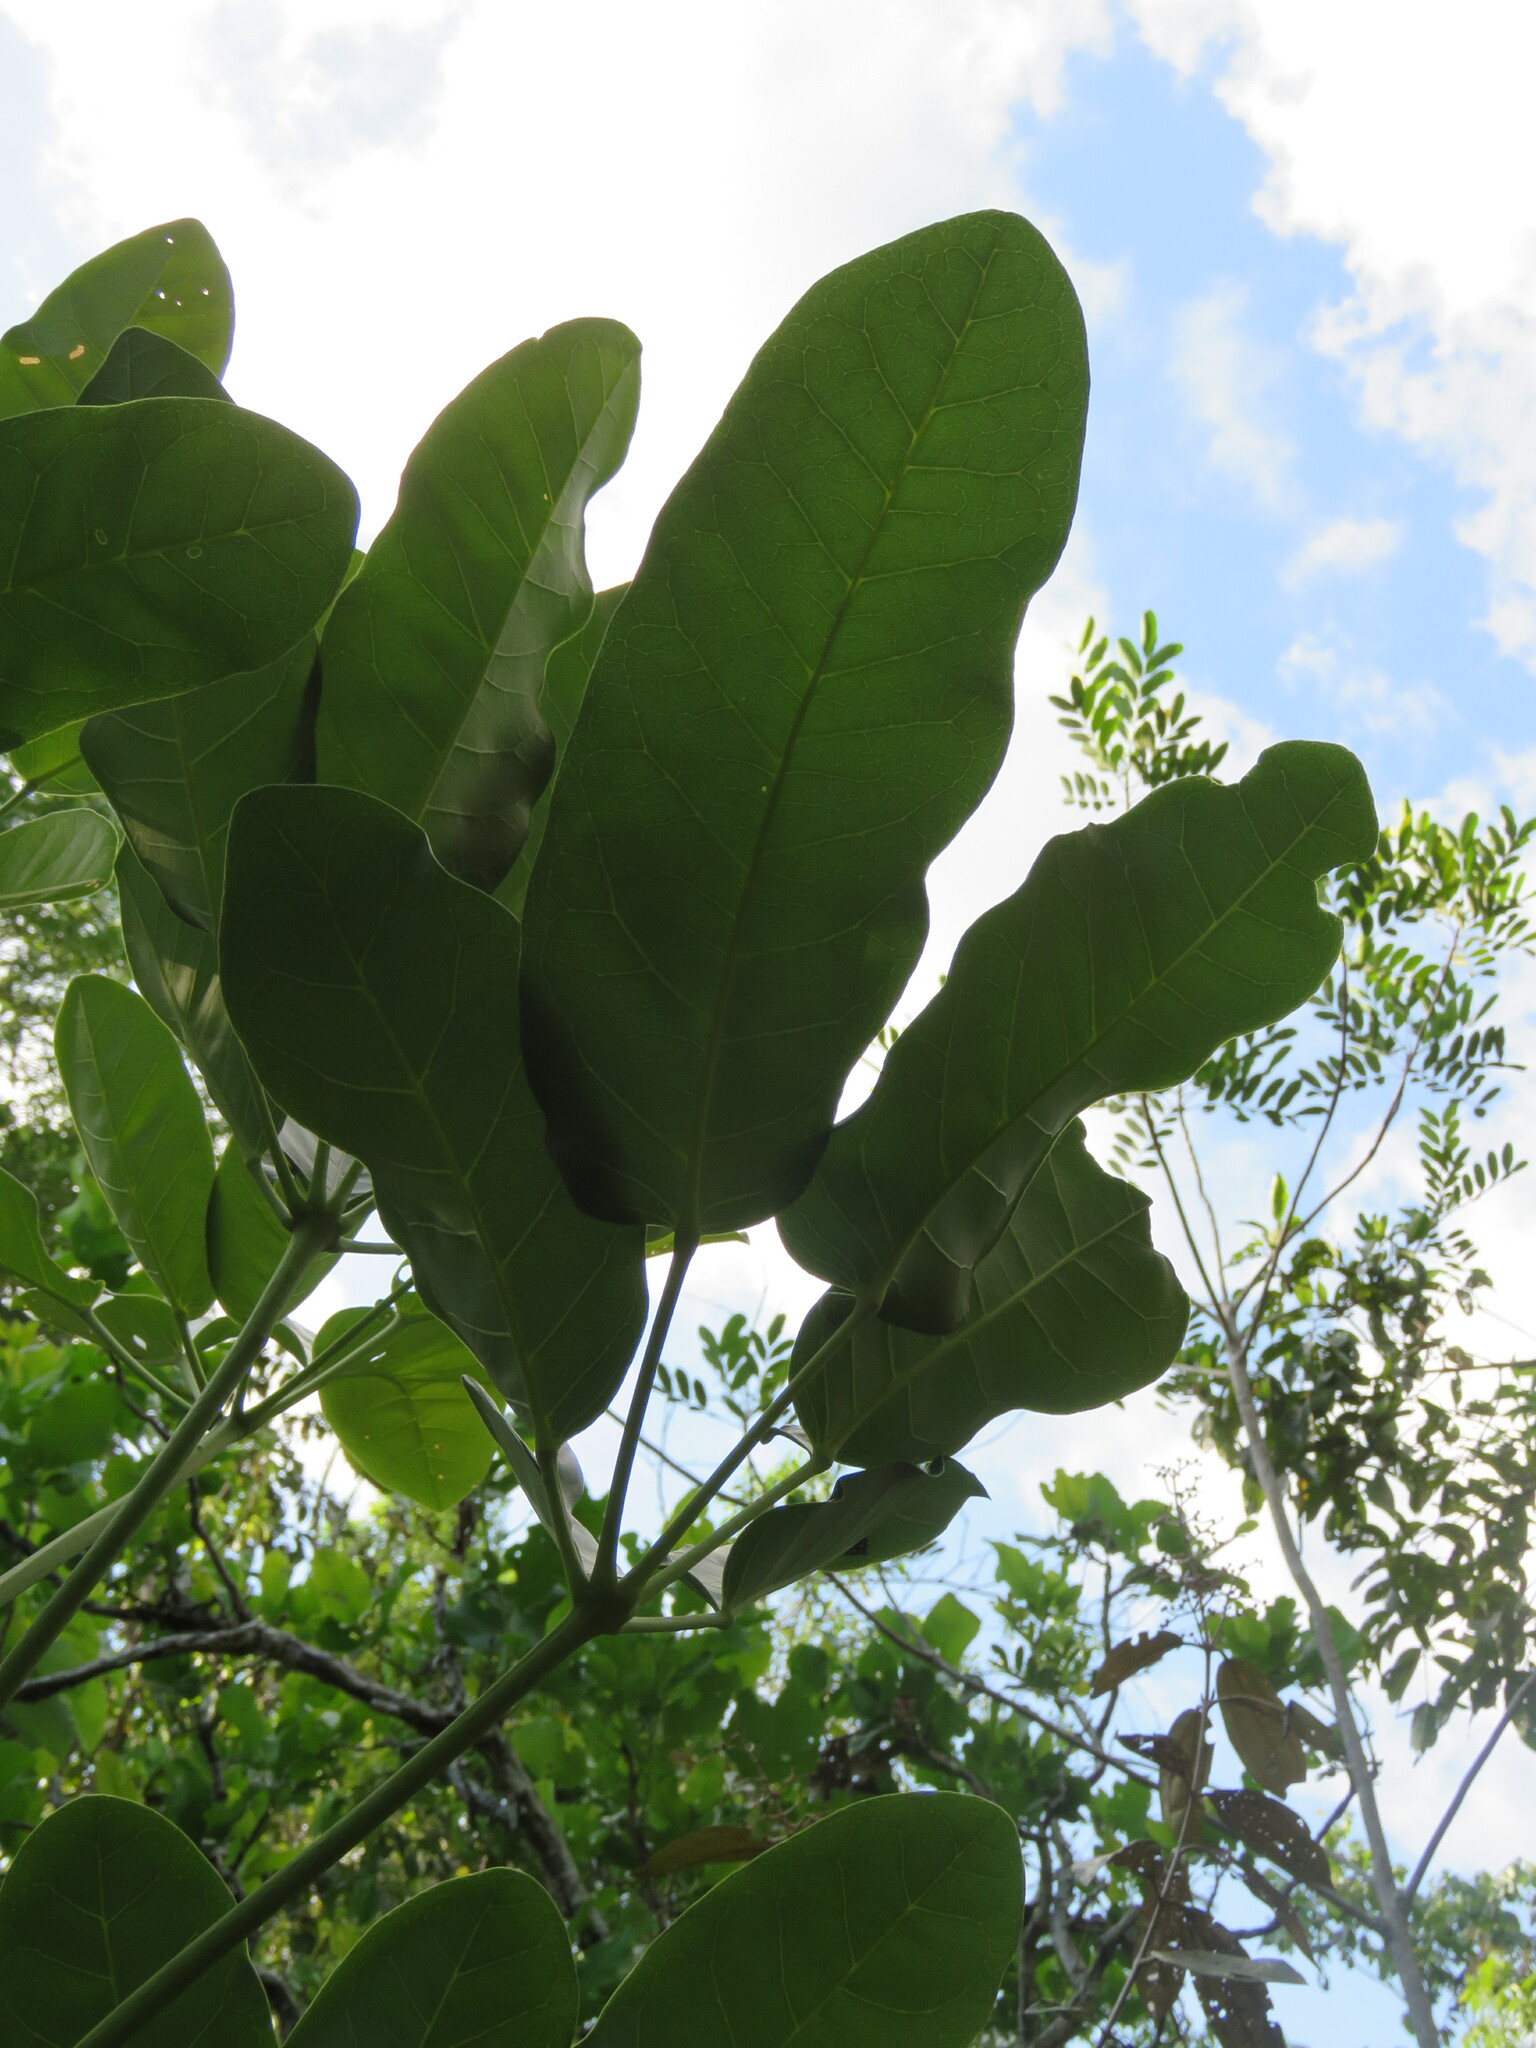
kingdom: Plantae
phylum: Tracheophyta
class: Magnoliopsida
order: Lamiales
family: Bignoniaceae
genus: Tabebuia
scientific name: Tabebuia aurea
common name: Caribbean trumpet-tree
